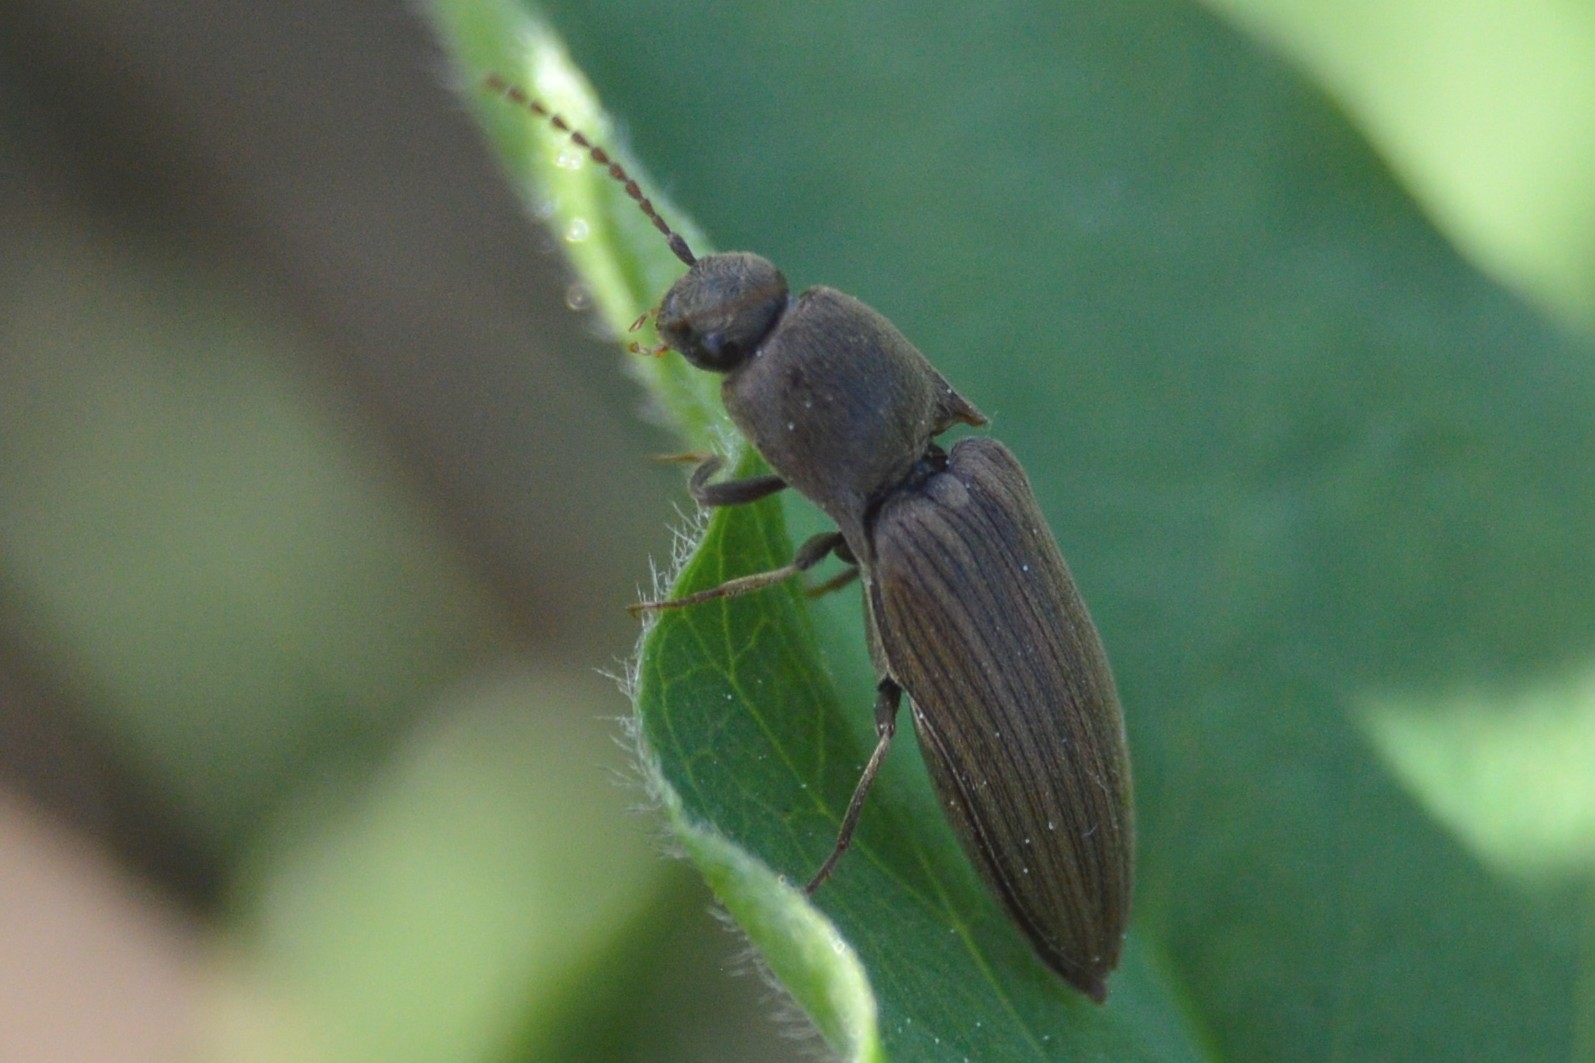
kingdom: Animalia
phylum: Arthropoda
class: Insecta
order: Coleoptera
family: Elateridae
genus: Agriotes
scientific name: Agriotes lineatus
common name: Lined click beetle
